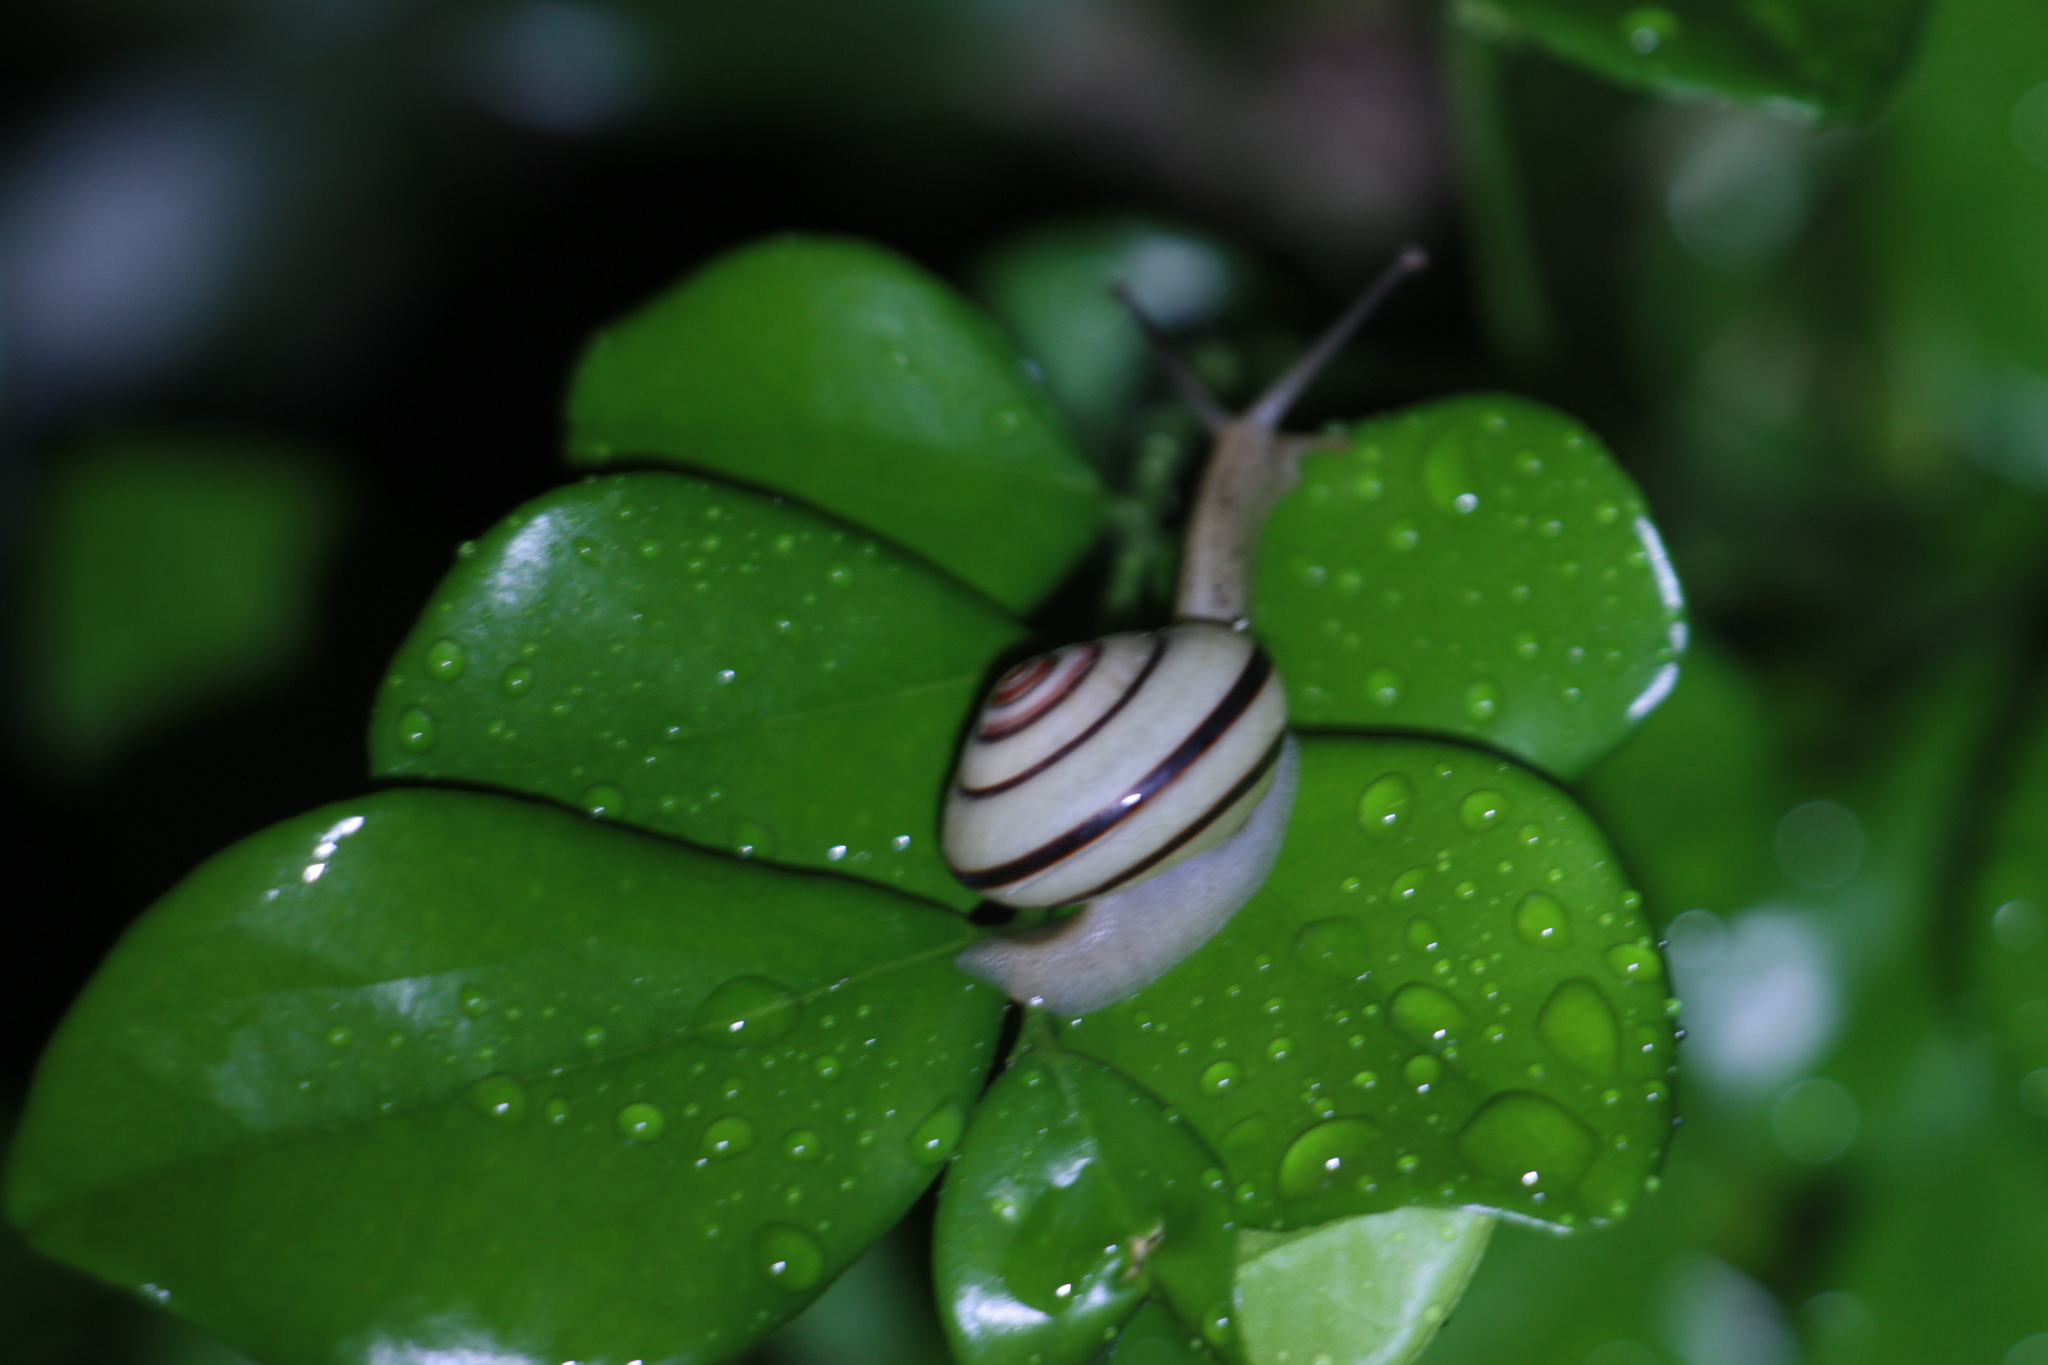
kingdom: Animalia
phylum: Mollusca
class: Gastropoda
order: Stylommatophora
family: Camaenidae
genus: Pancala
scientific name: Pancala batanica
